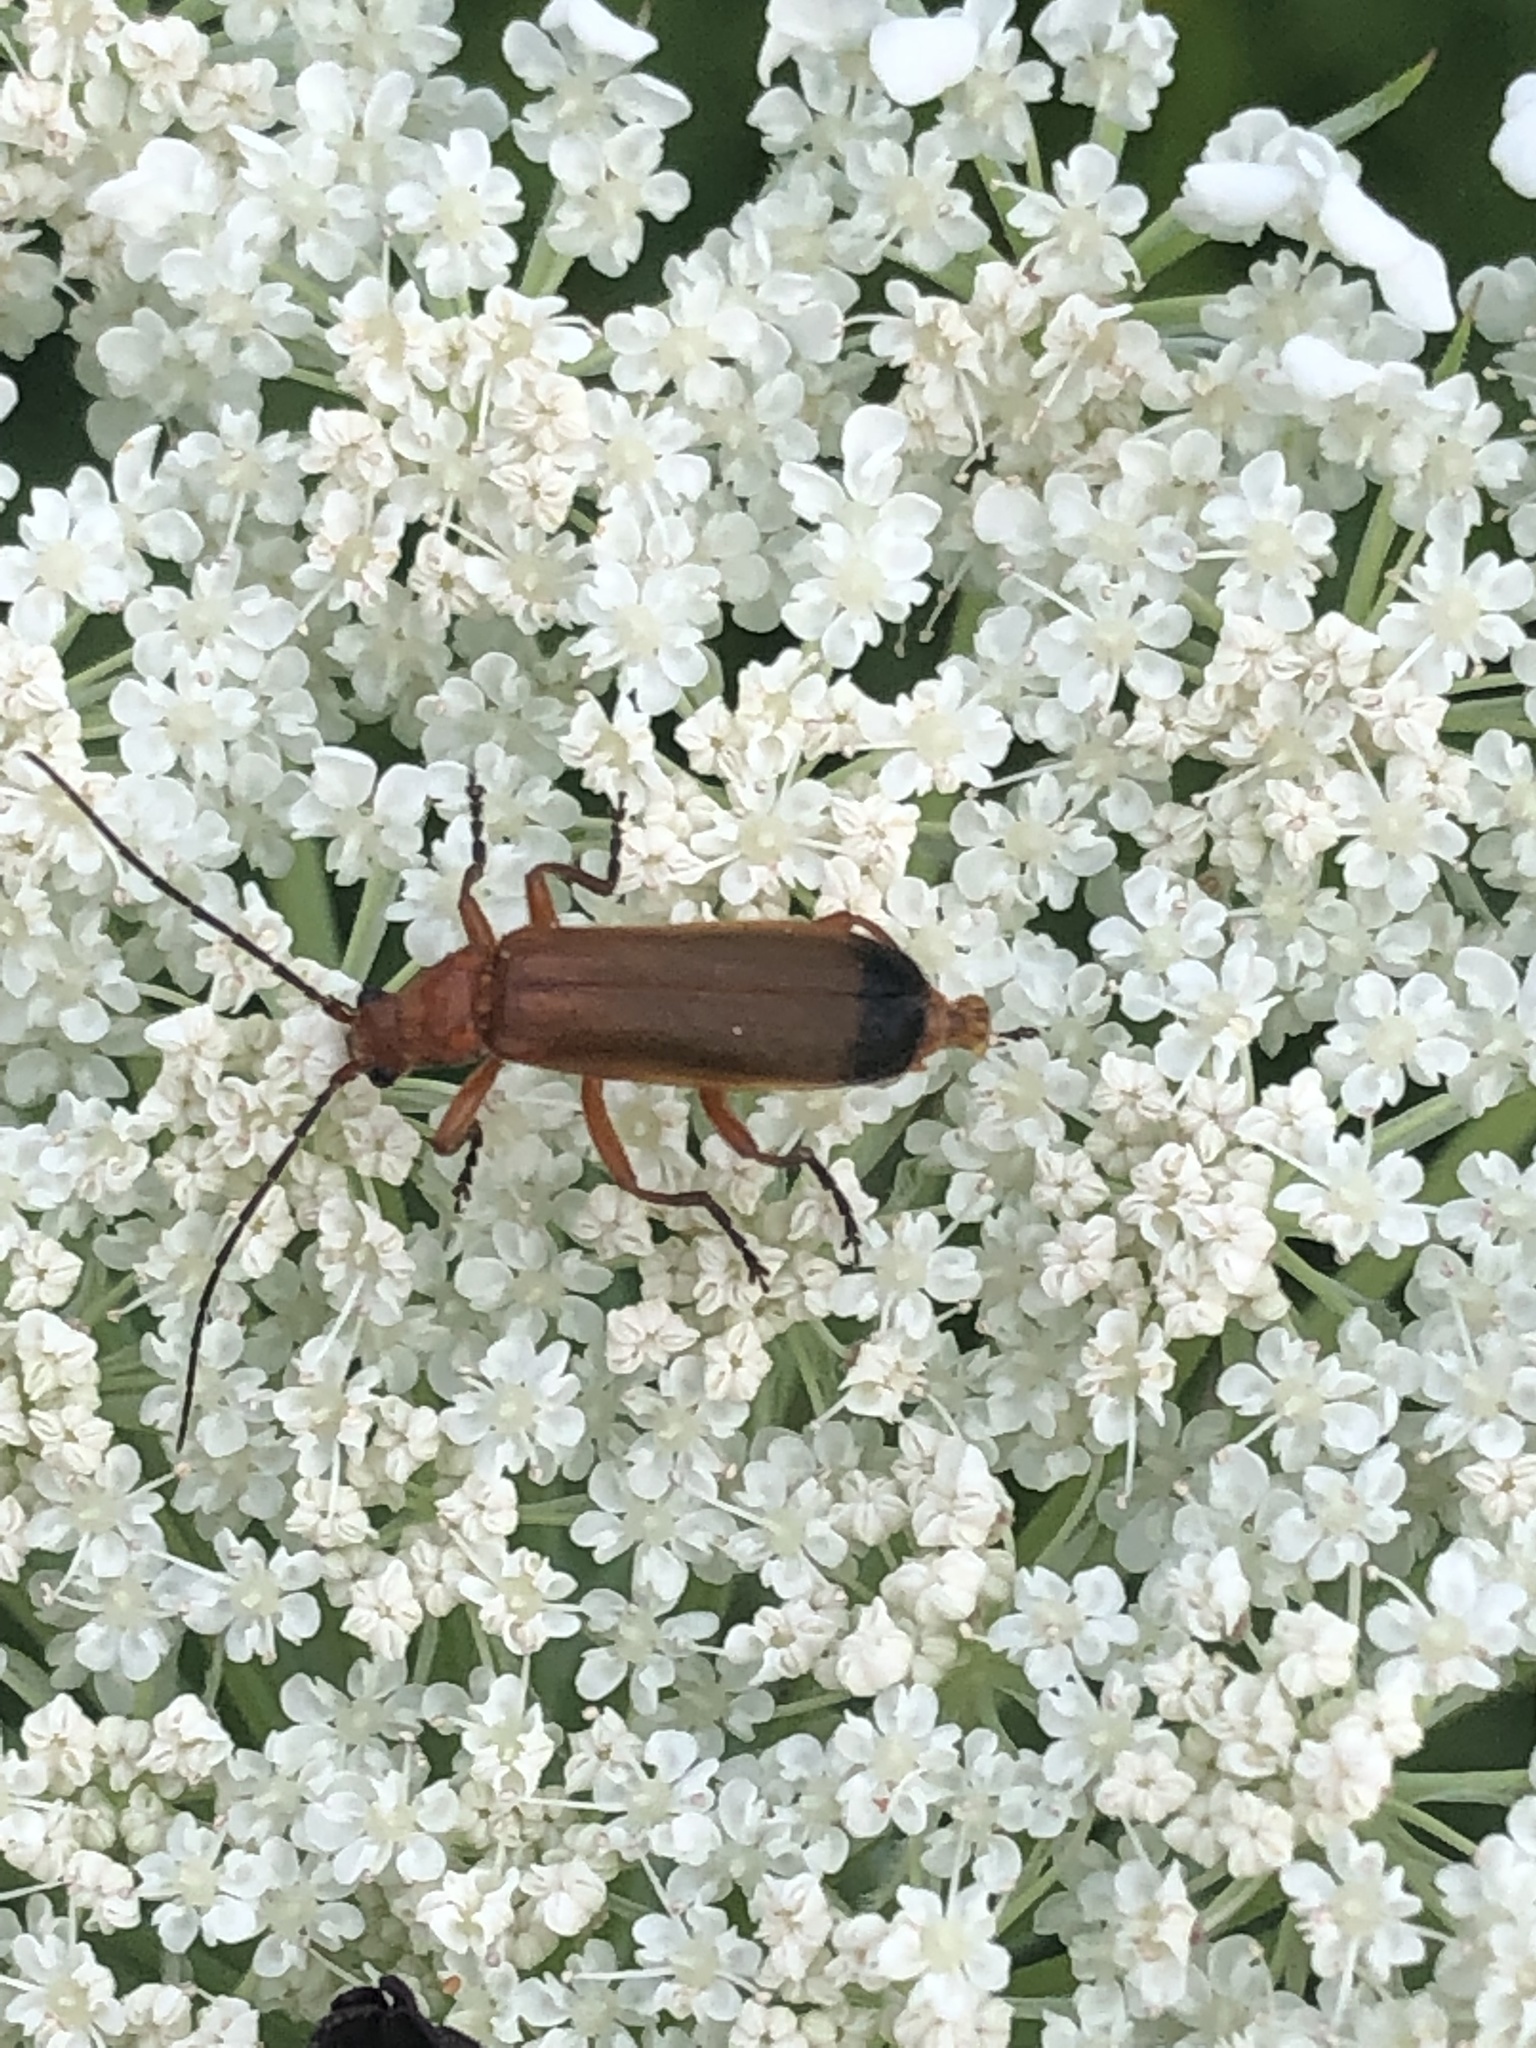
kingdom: Animalia
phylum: Arthropoda
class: Insecta
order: Coleoptera
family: Cantharidae
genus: Rhagonycha
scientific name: Rhagonycha fulva
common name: Common red soldier beetle
